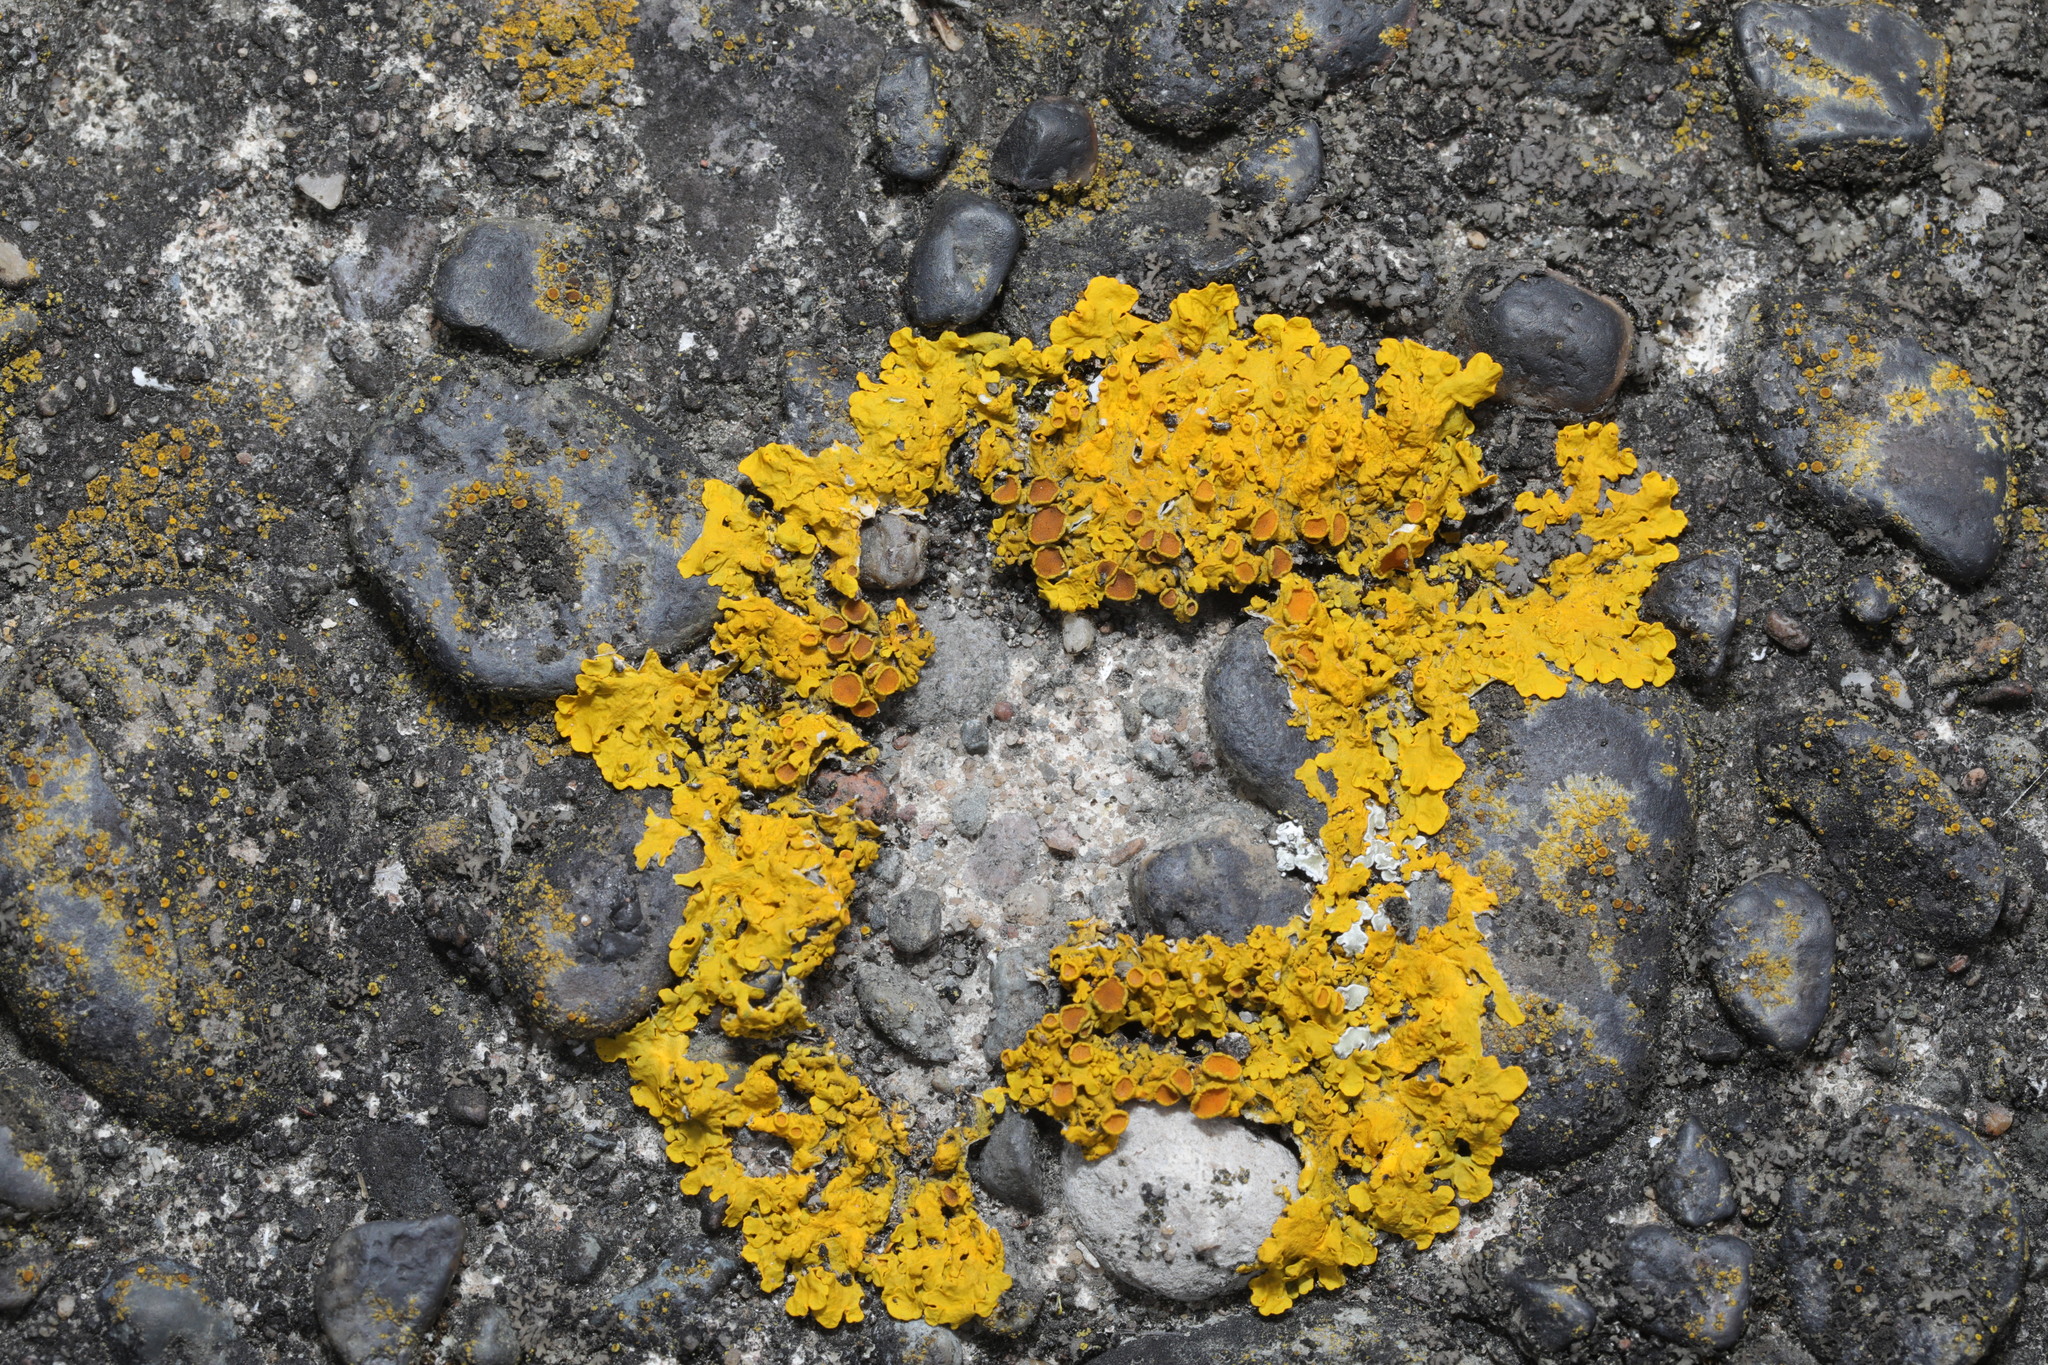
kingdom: Fungi
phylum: Ascomycota
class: Lecanoromycetes
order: Teloschistales
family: Teloschistaceae
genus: Xanthoria
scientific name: Xanthoria parietina
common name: Common orange lichen
